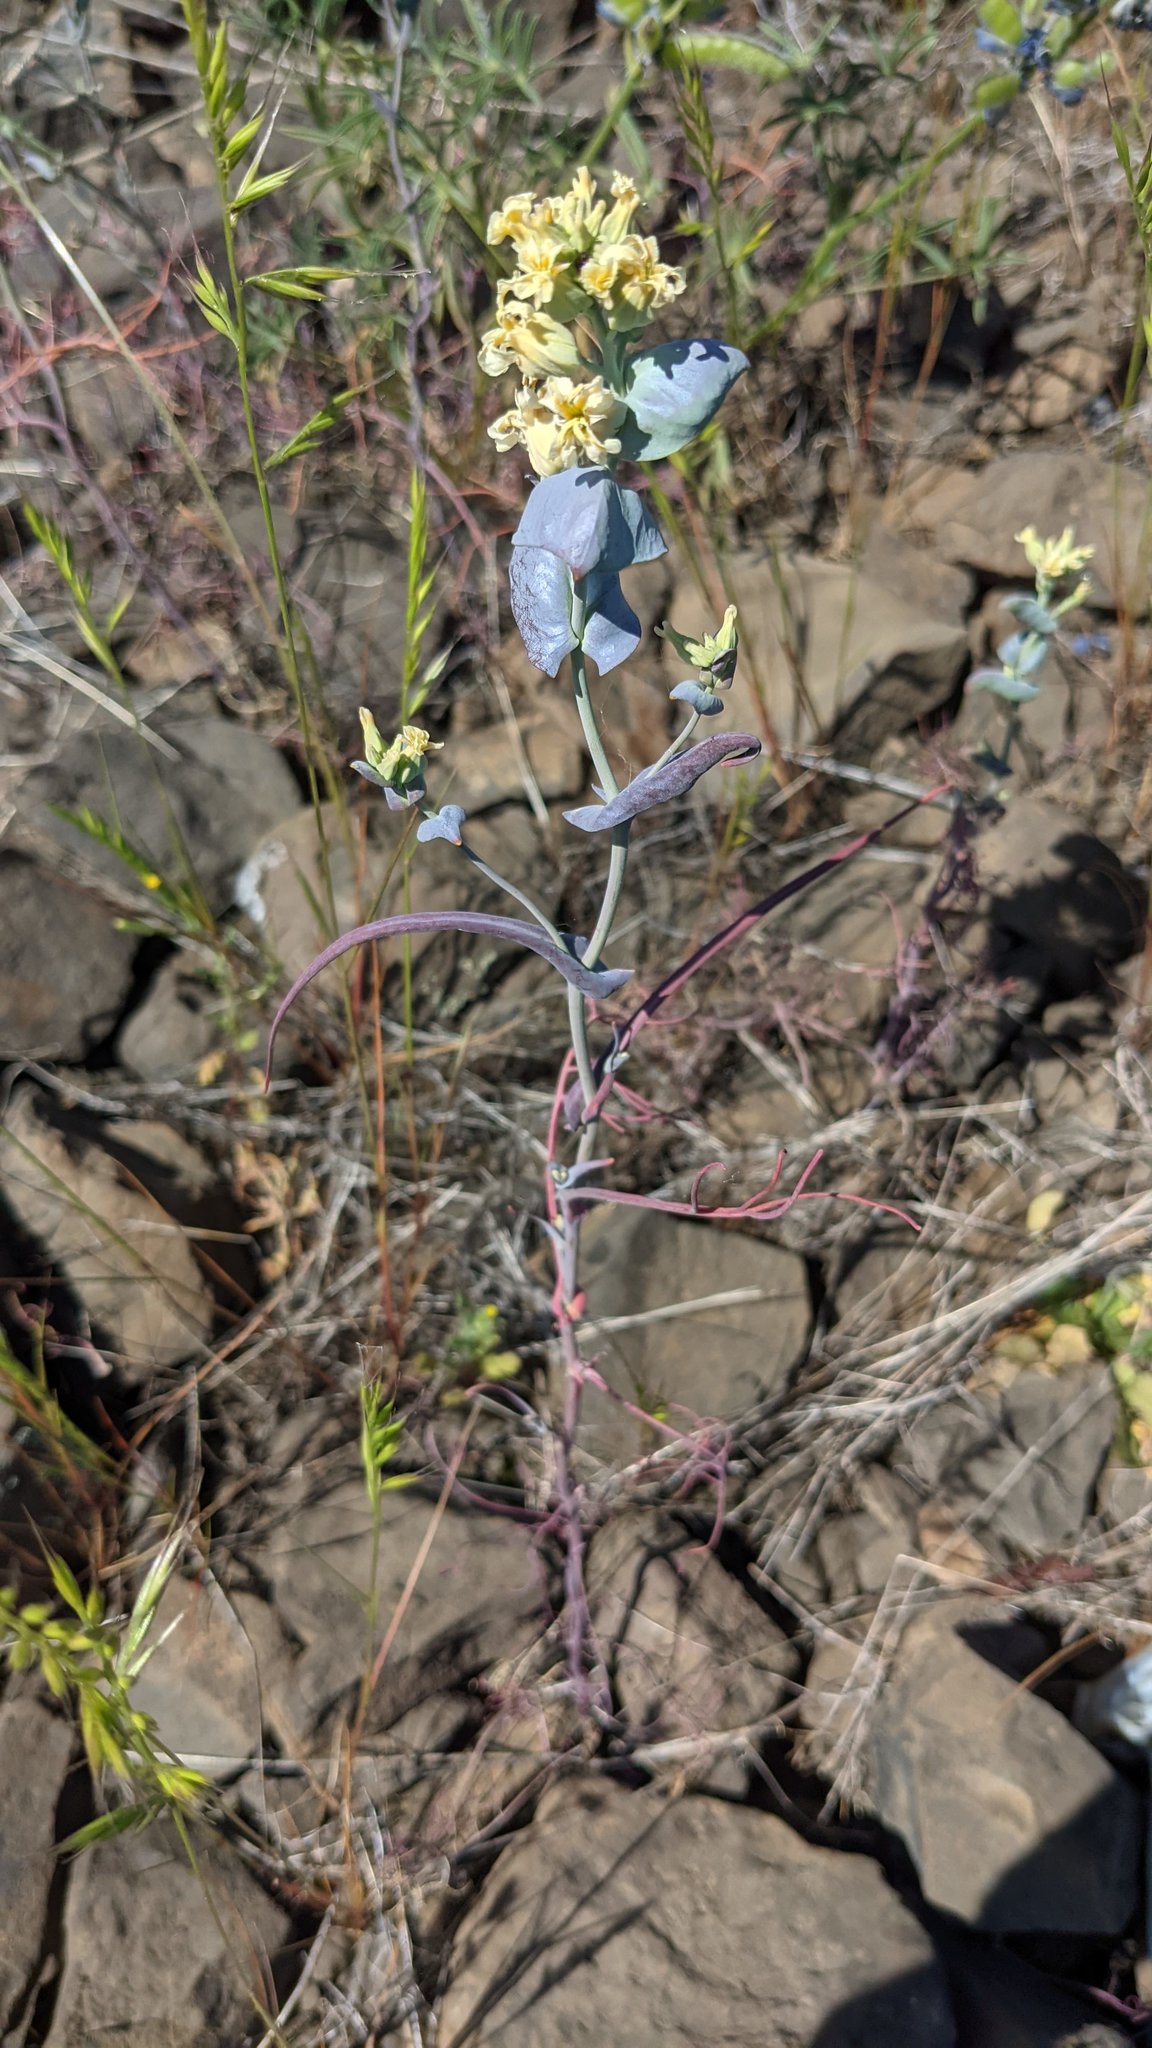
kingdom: Plantae
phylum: Tracheophyta
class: Magnoliopsida
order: Brassicales
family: Brassicaceae
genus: Streptanthus
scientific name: Streptanthus diversifolius
